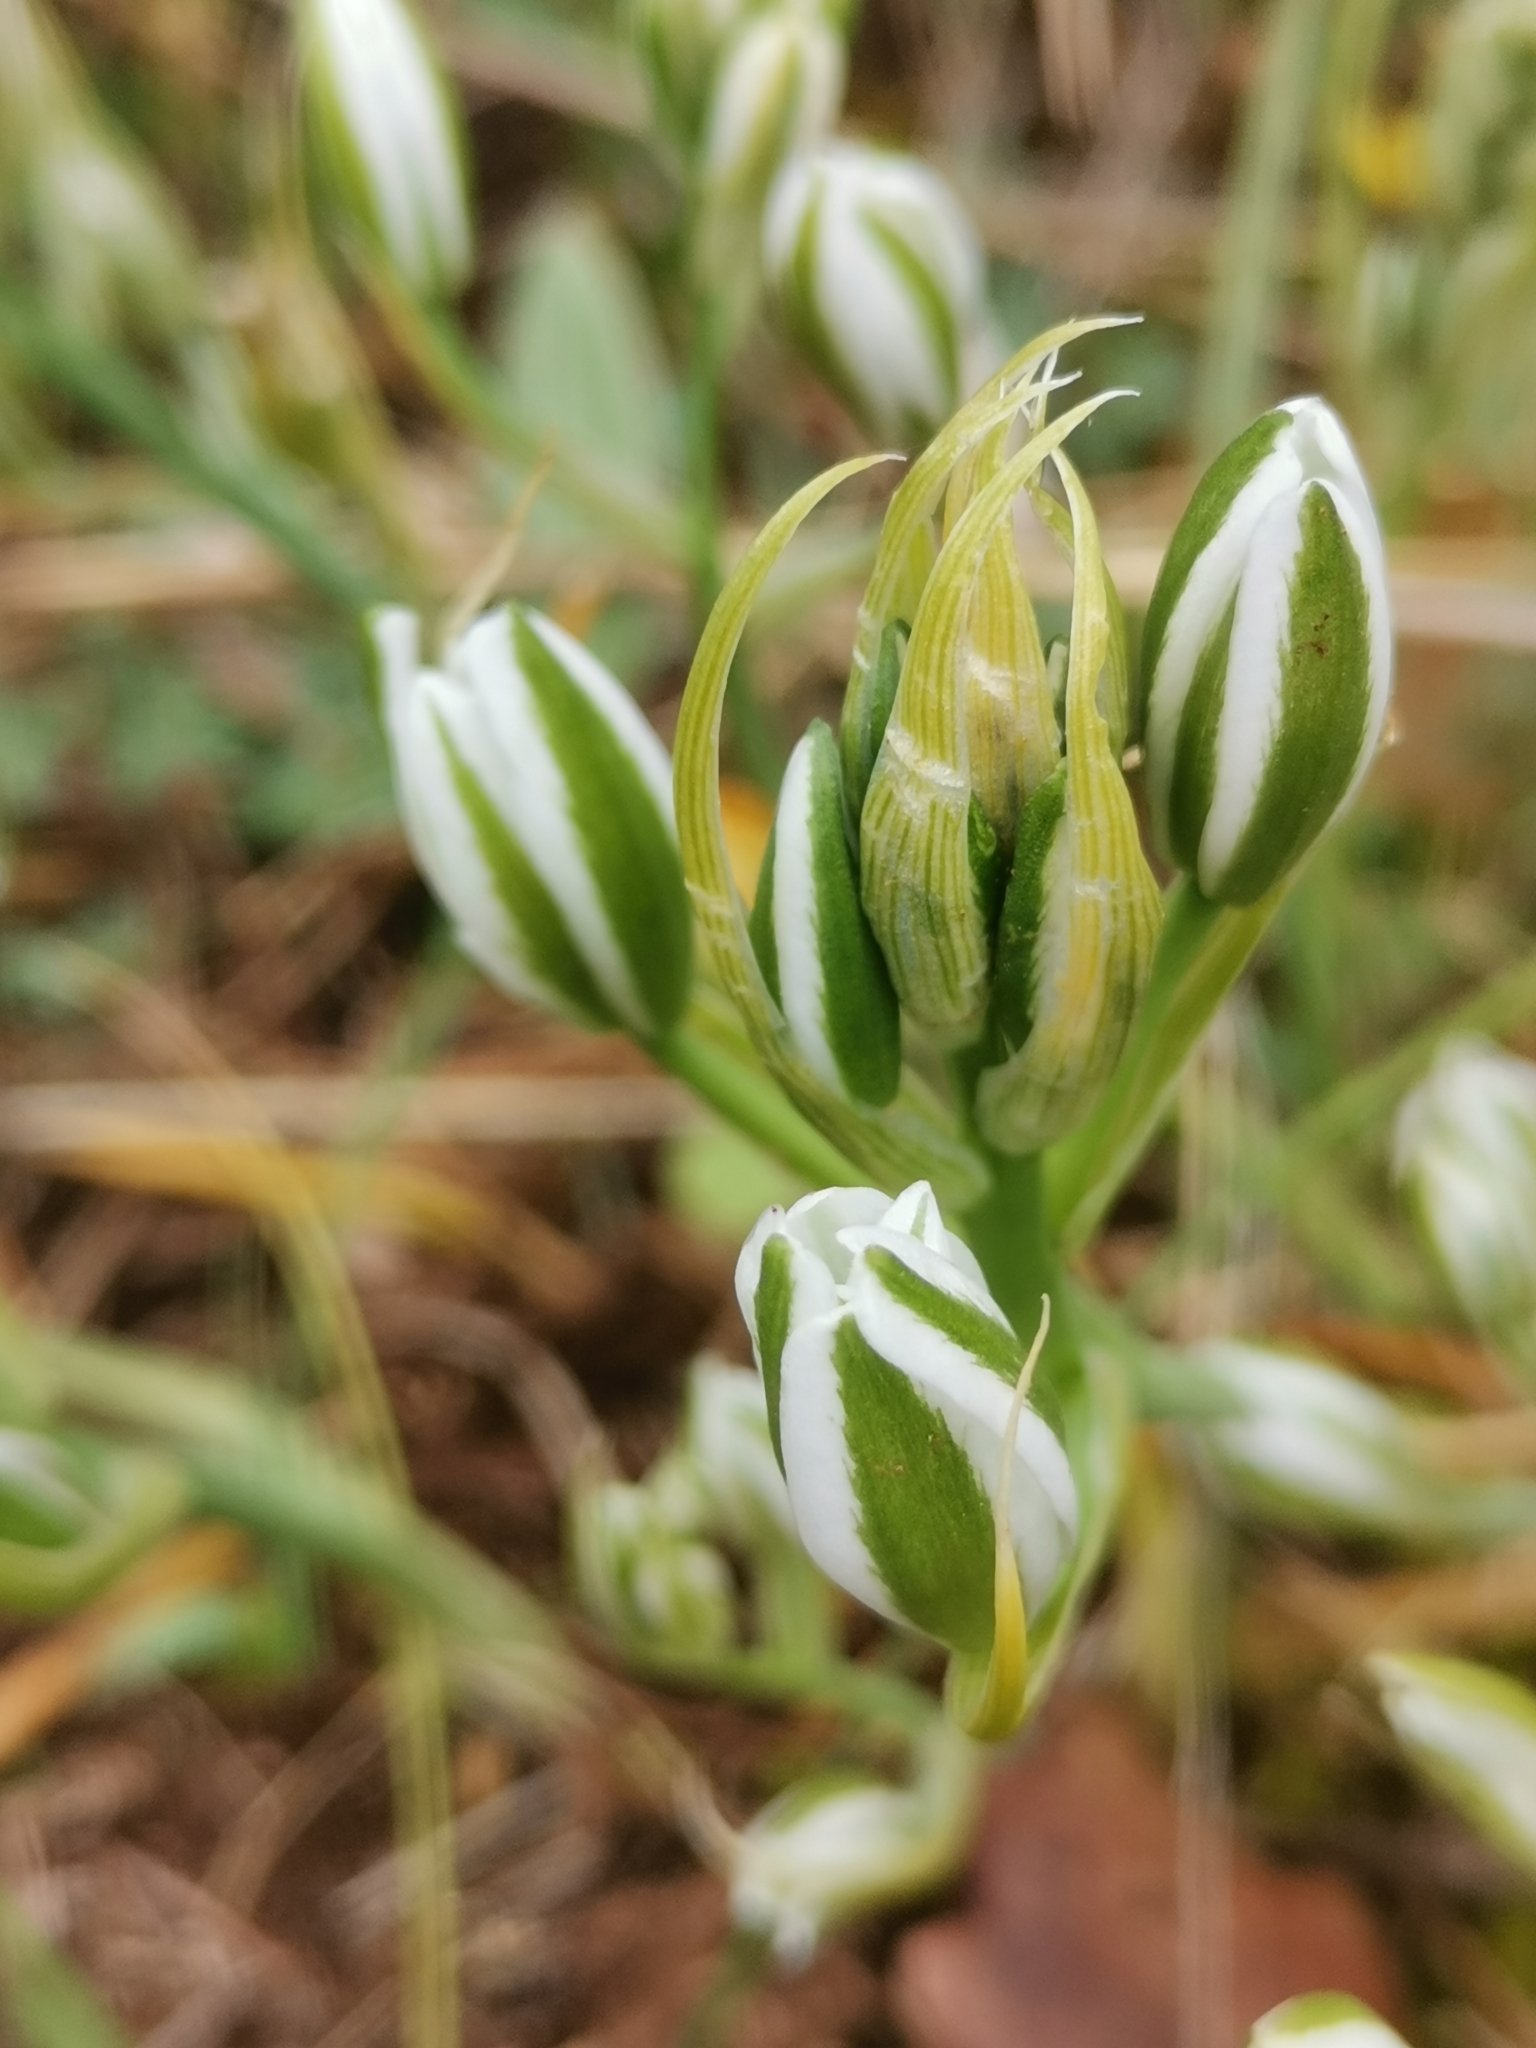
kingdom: Plantae
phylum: Tracheophyta
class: Liliopsida
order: Asparagales
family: Asparagaceae
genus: Ornithogalum
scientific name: Ornithogalum comosum
